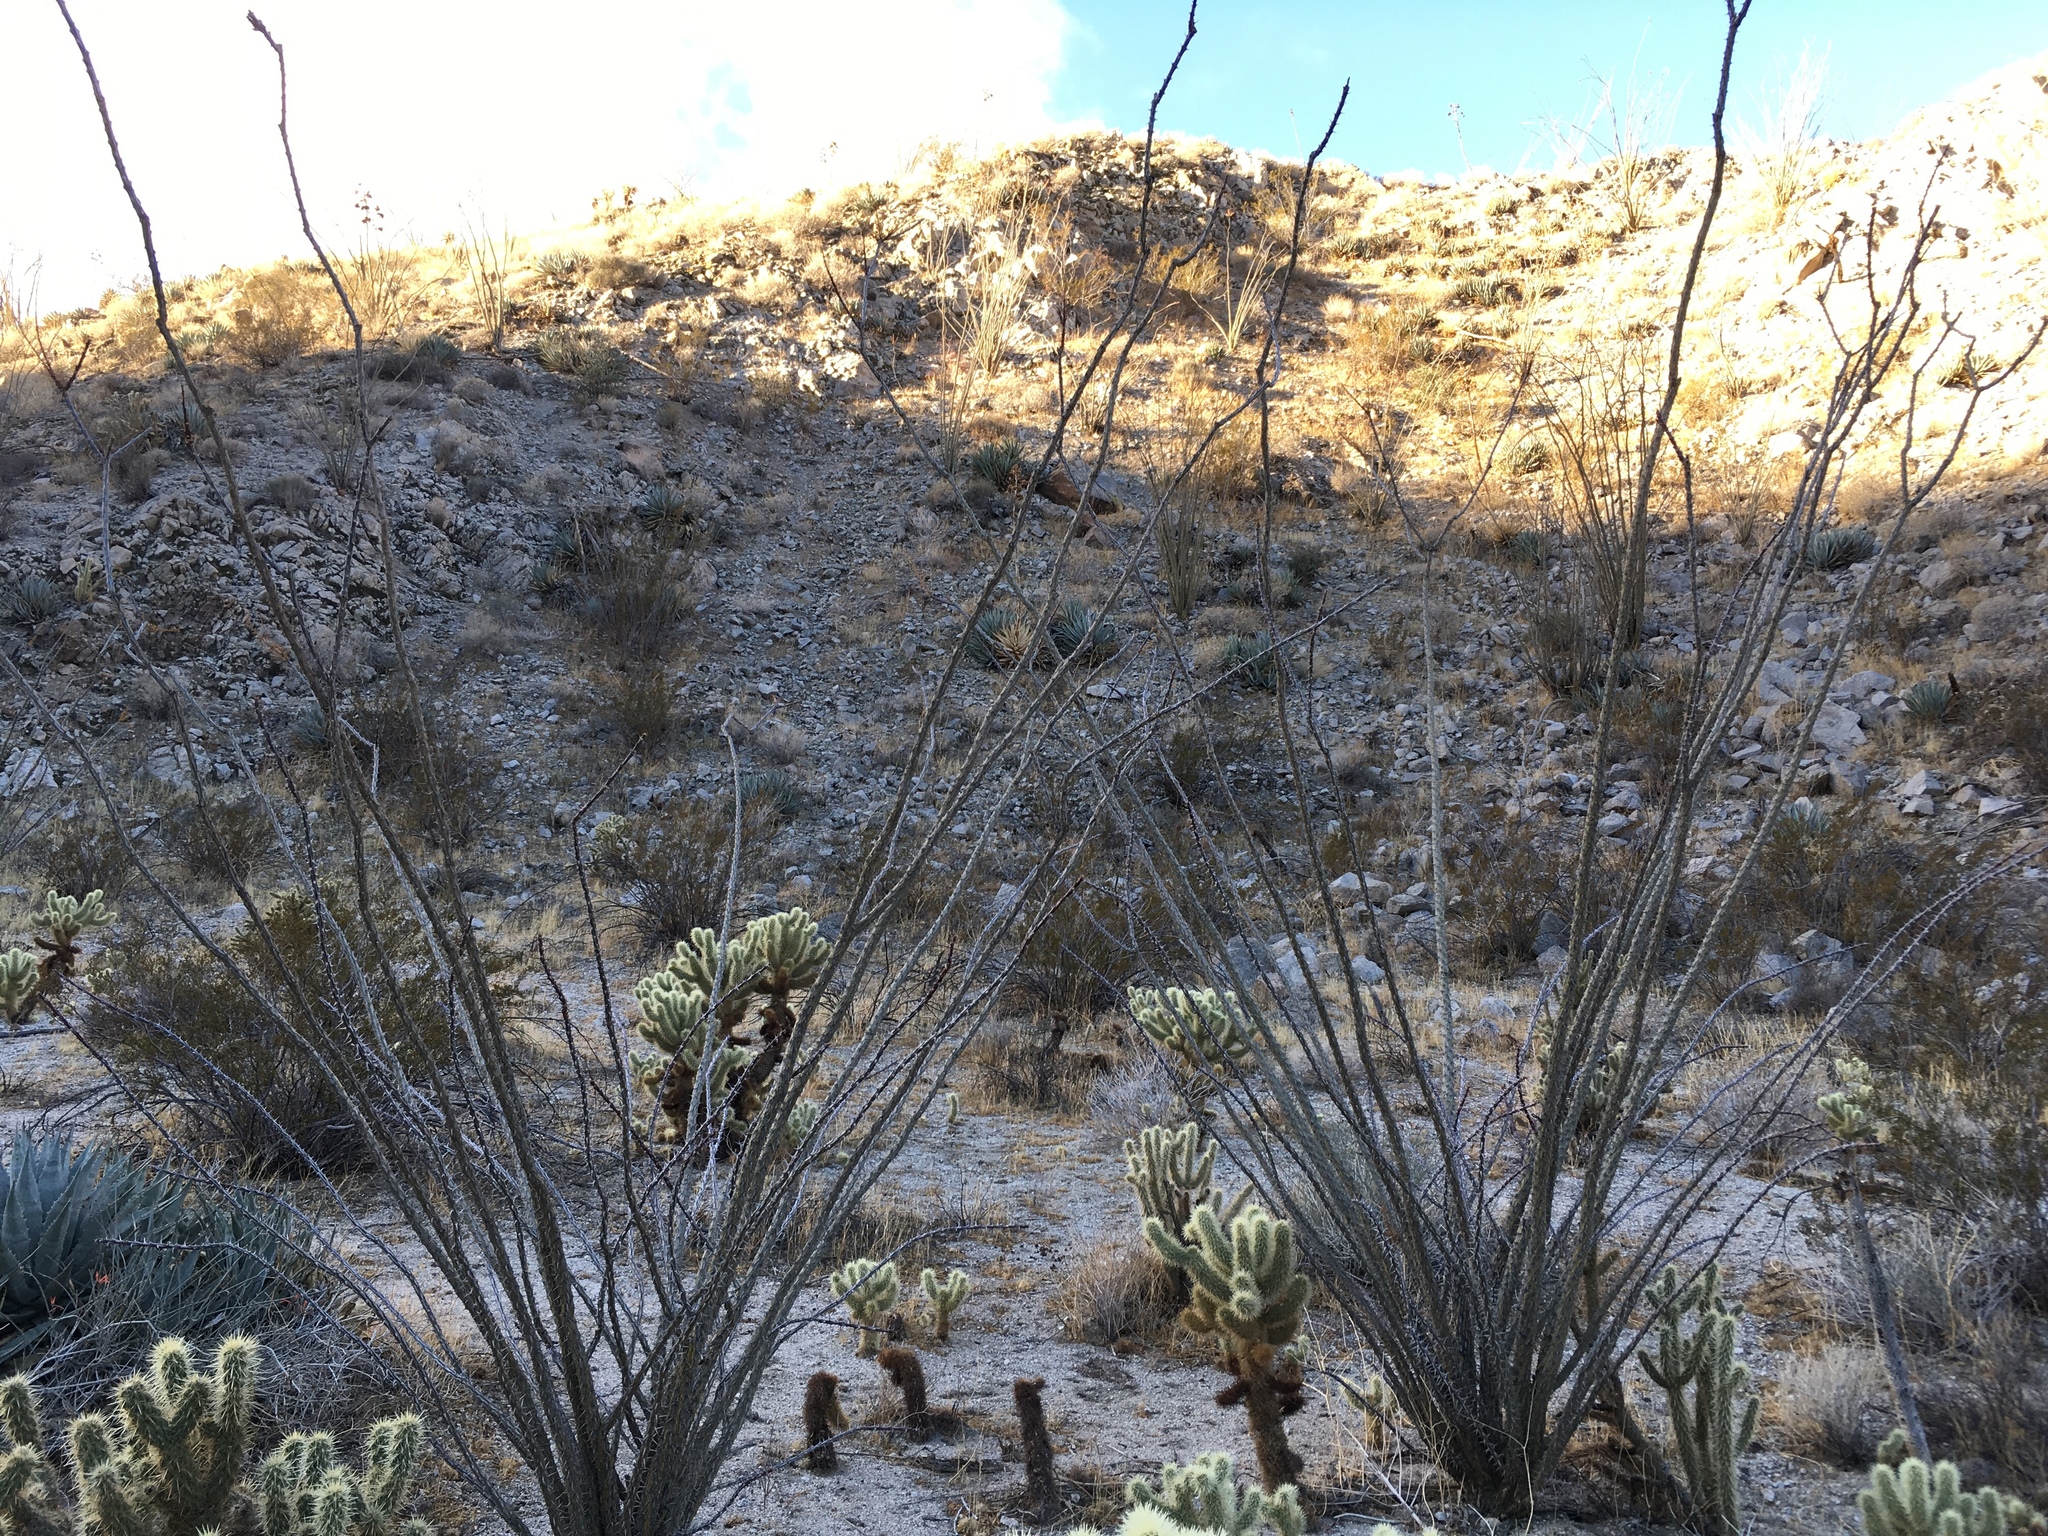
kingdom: Plantae
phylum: Tracheophyta
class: Magnoliopsida
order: Ericales
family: Fouquieriaceae
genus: Fouquieria
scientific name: Fouquieria splendens
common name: Vine-cactus
